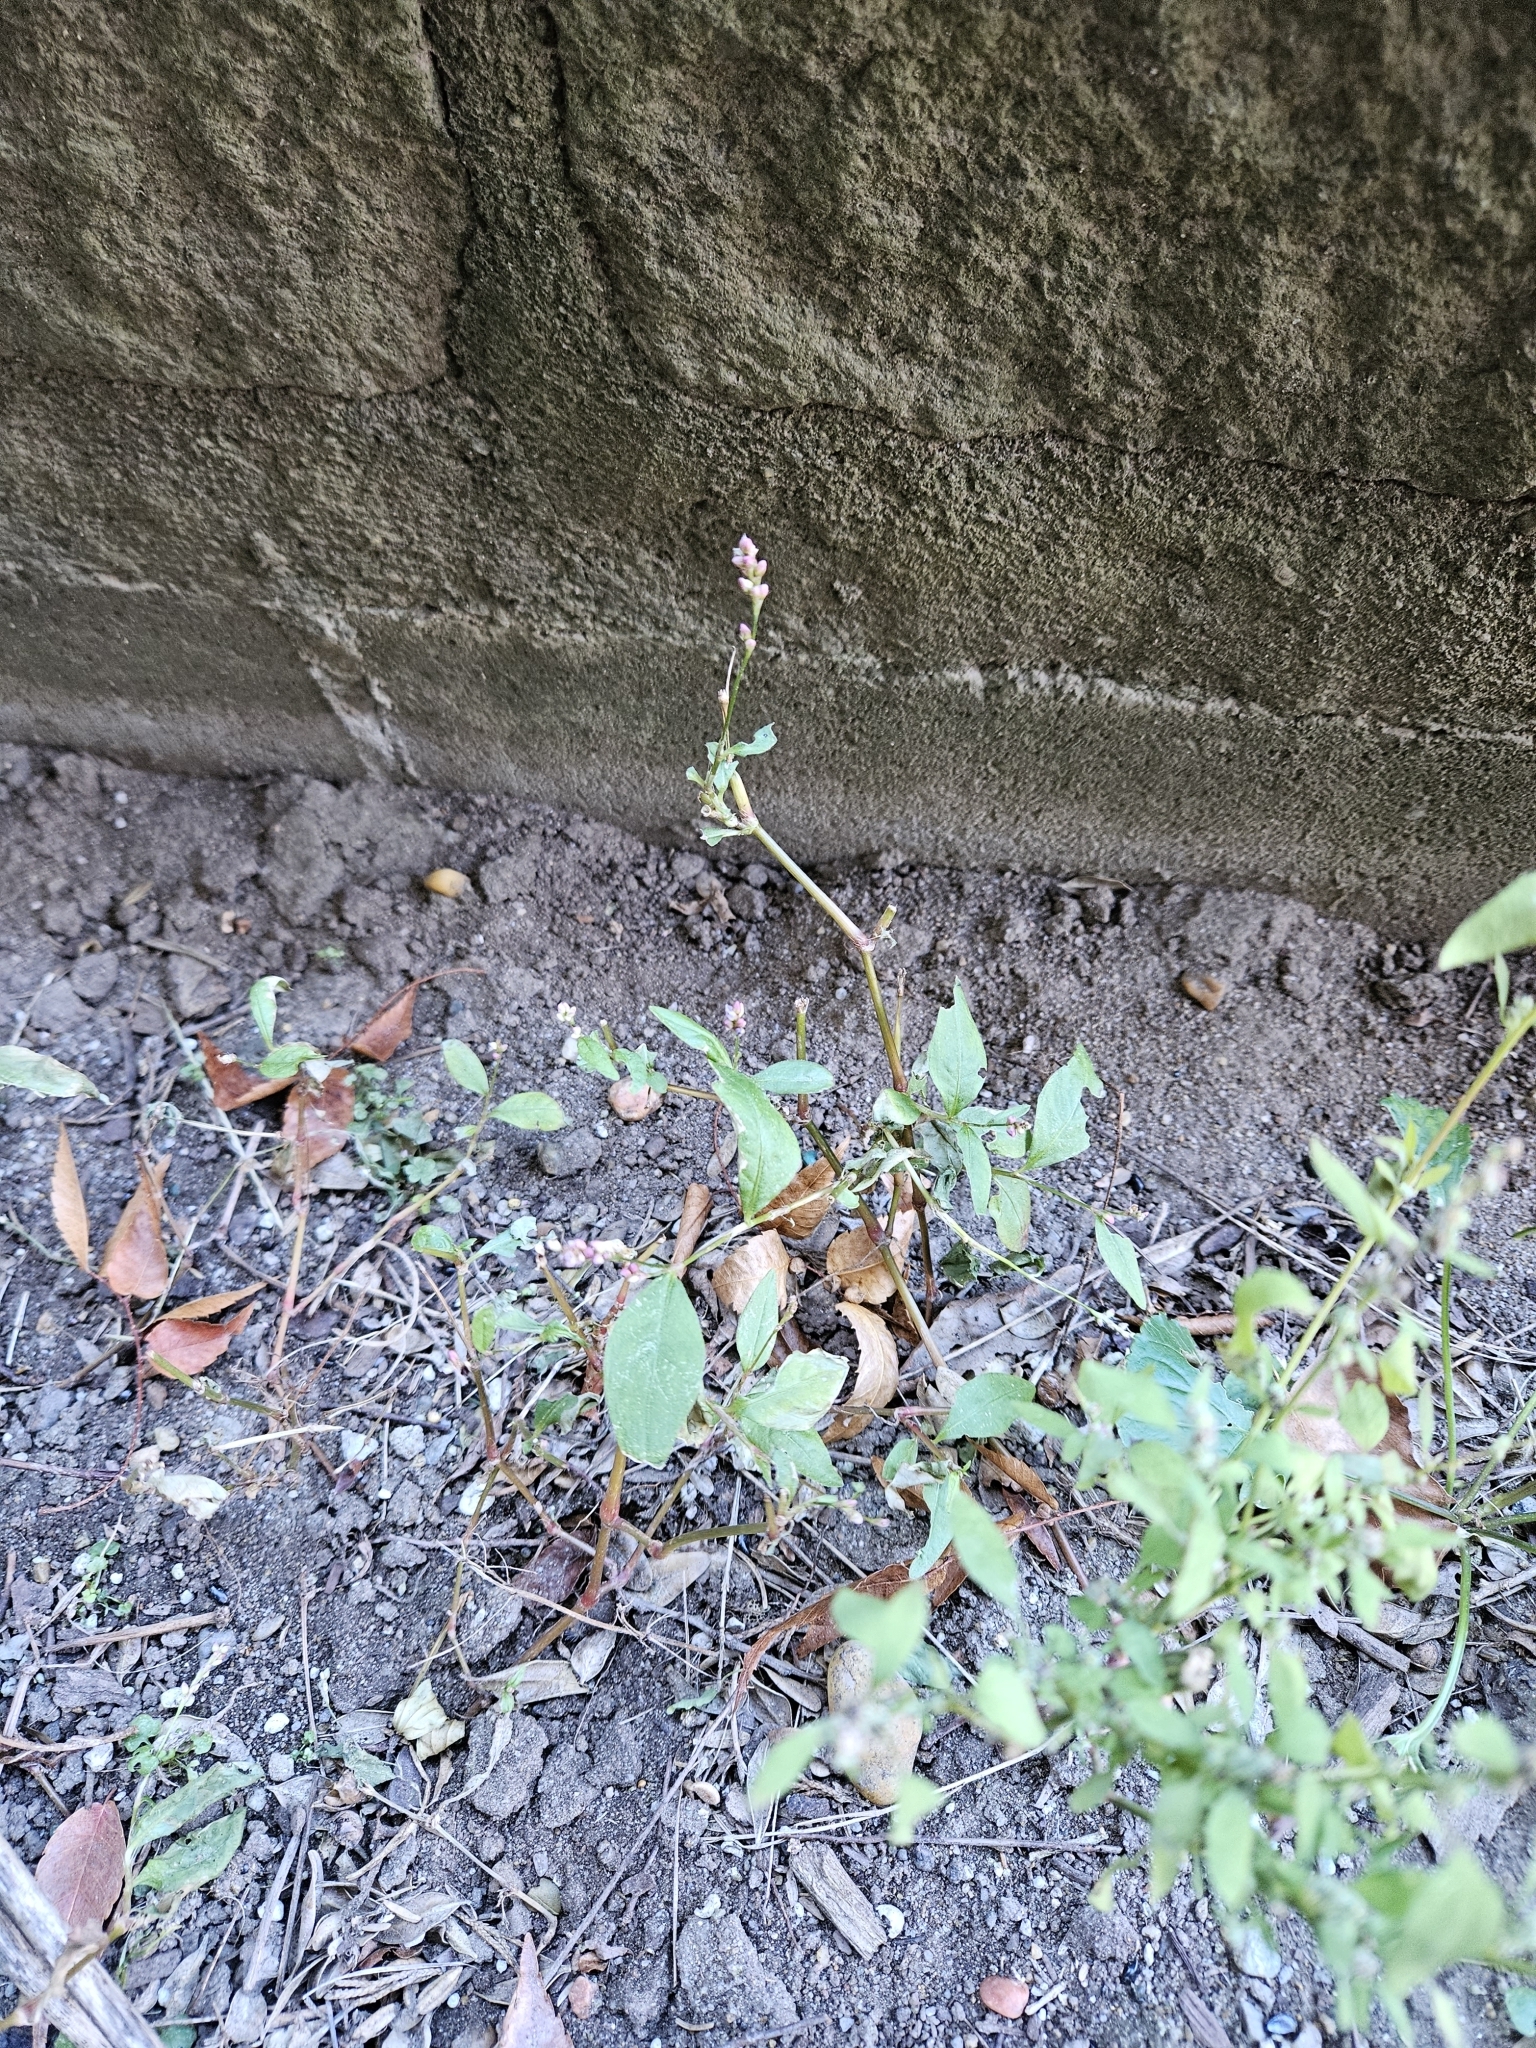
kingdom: Plantae
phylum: Tracheophyta
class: Magnoliopsida
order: Caryophyllales
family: Polygonaceae
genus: Persicaria
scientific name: Persicaria longiseta
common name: Bristly lady's-thumb
